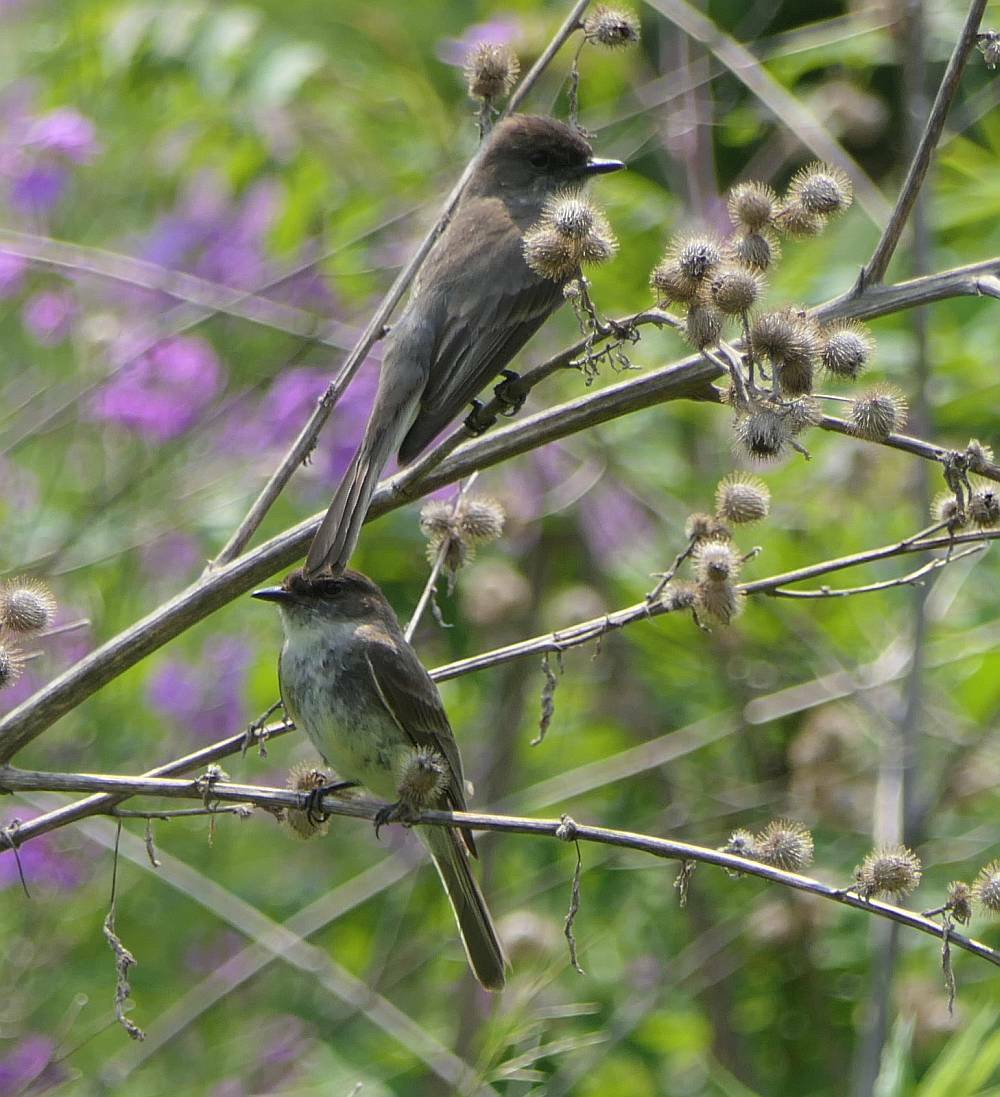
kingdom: Animalia
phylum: Chordata
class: Aves
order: Passeriformes
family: Tyrannidae
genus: Sayornis
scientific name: Sayornis phoebe
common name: Eastern phoebe
